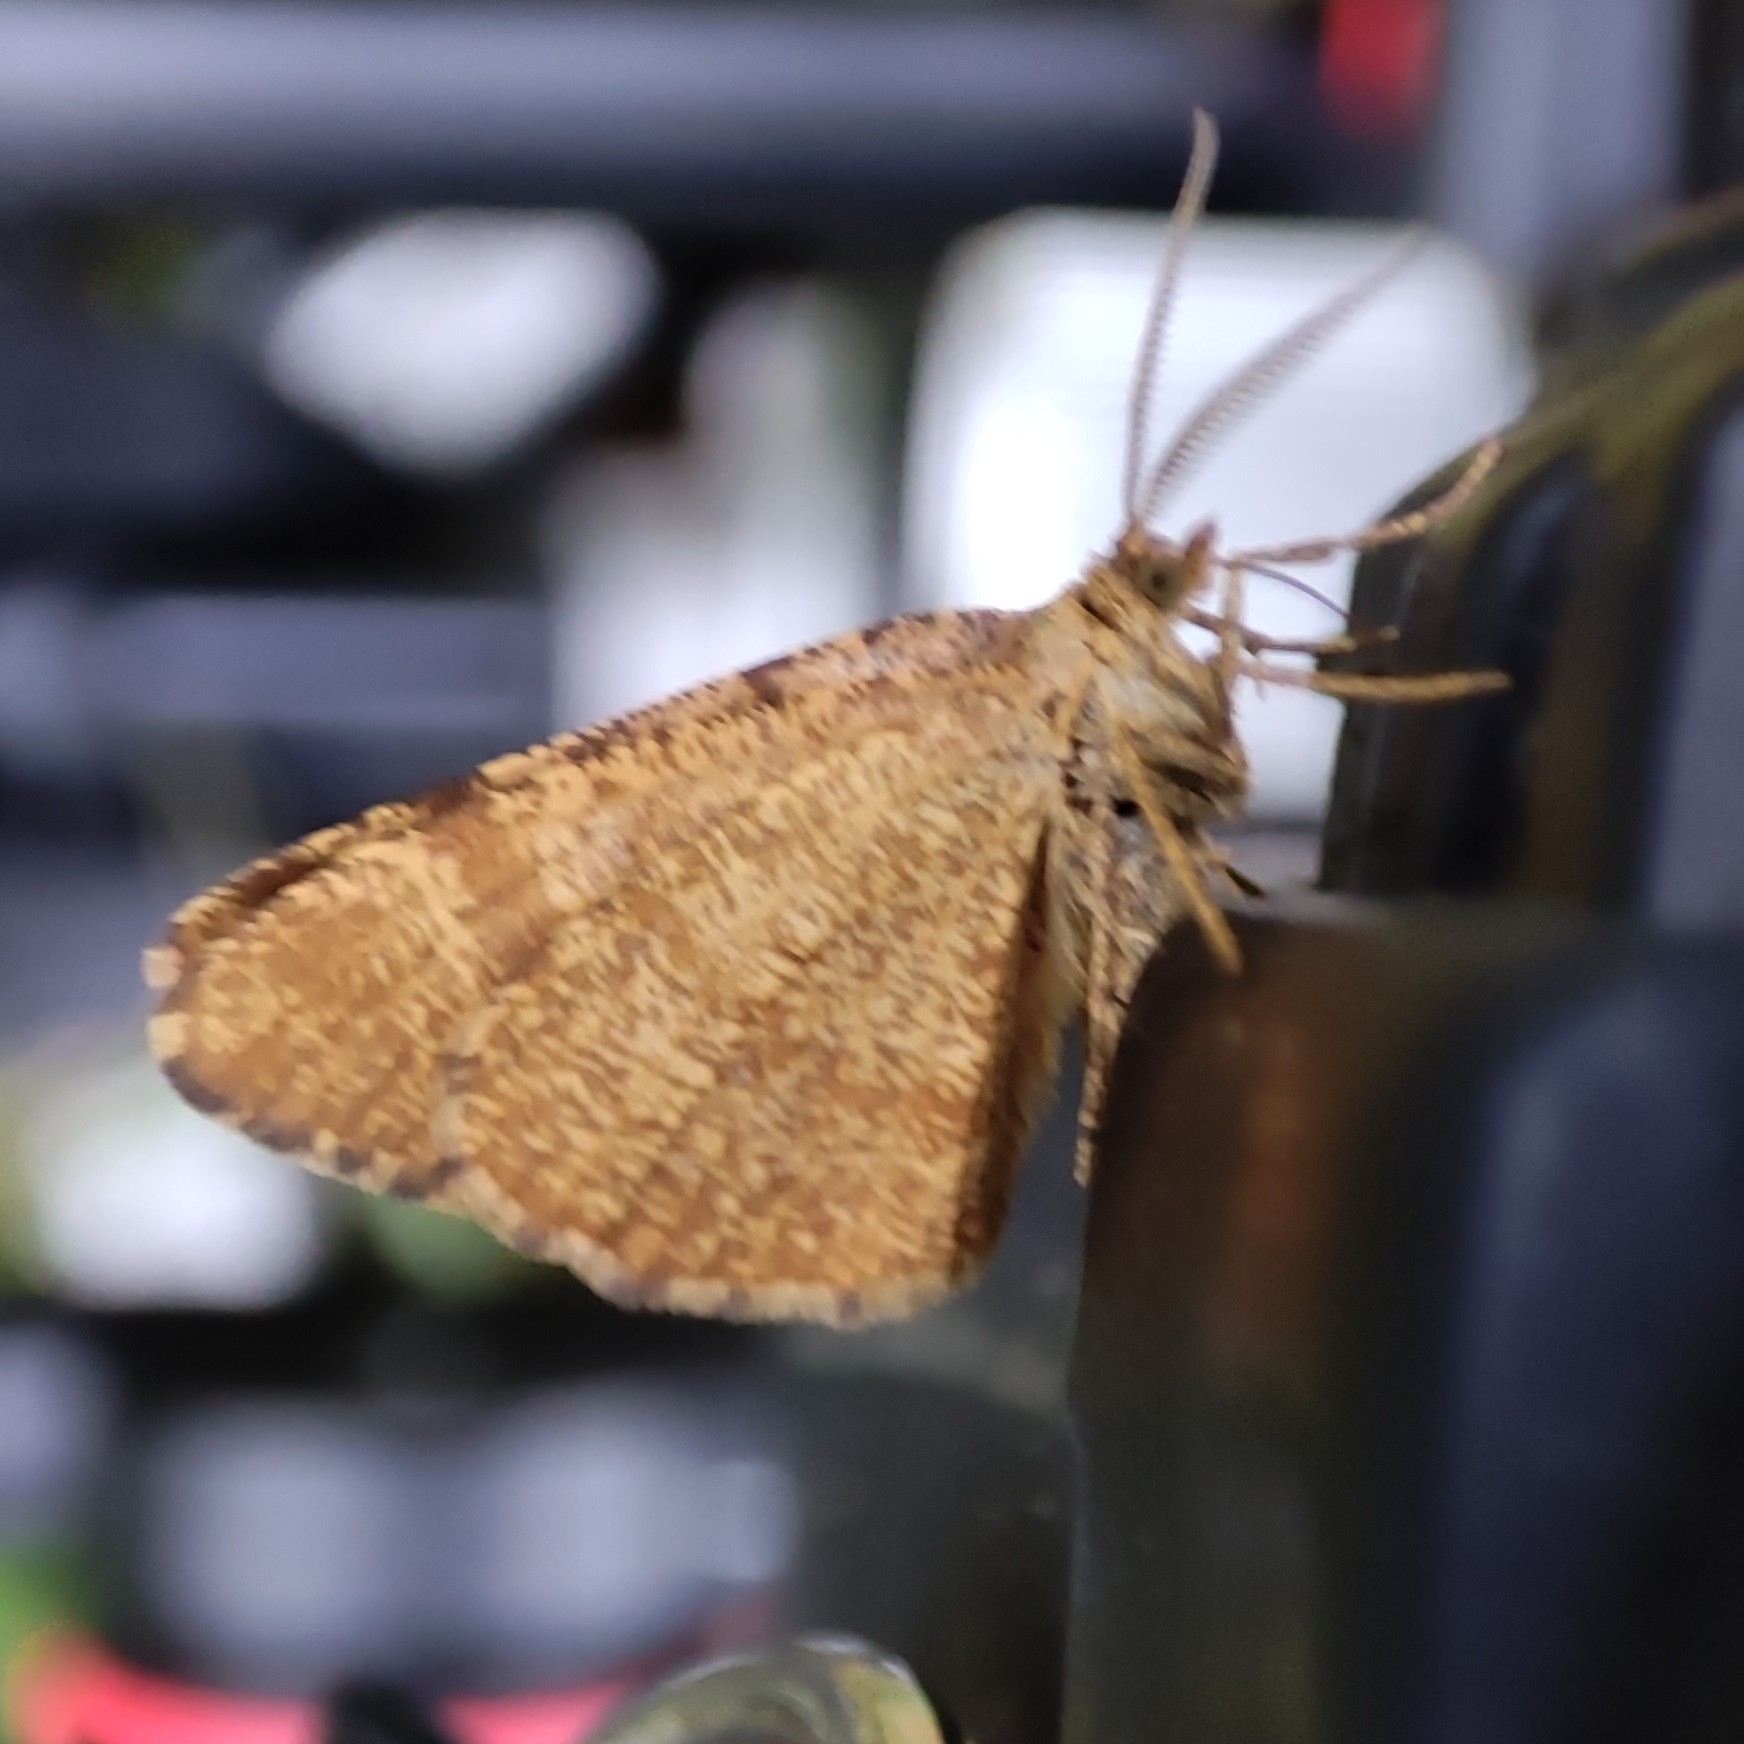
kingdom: Animalia
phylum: Arthropoda
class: Insecta
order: Lepidoptera
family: Geometridae
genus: Macaria
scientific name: Macaria brunneata
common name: Rannoch looper
